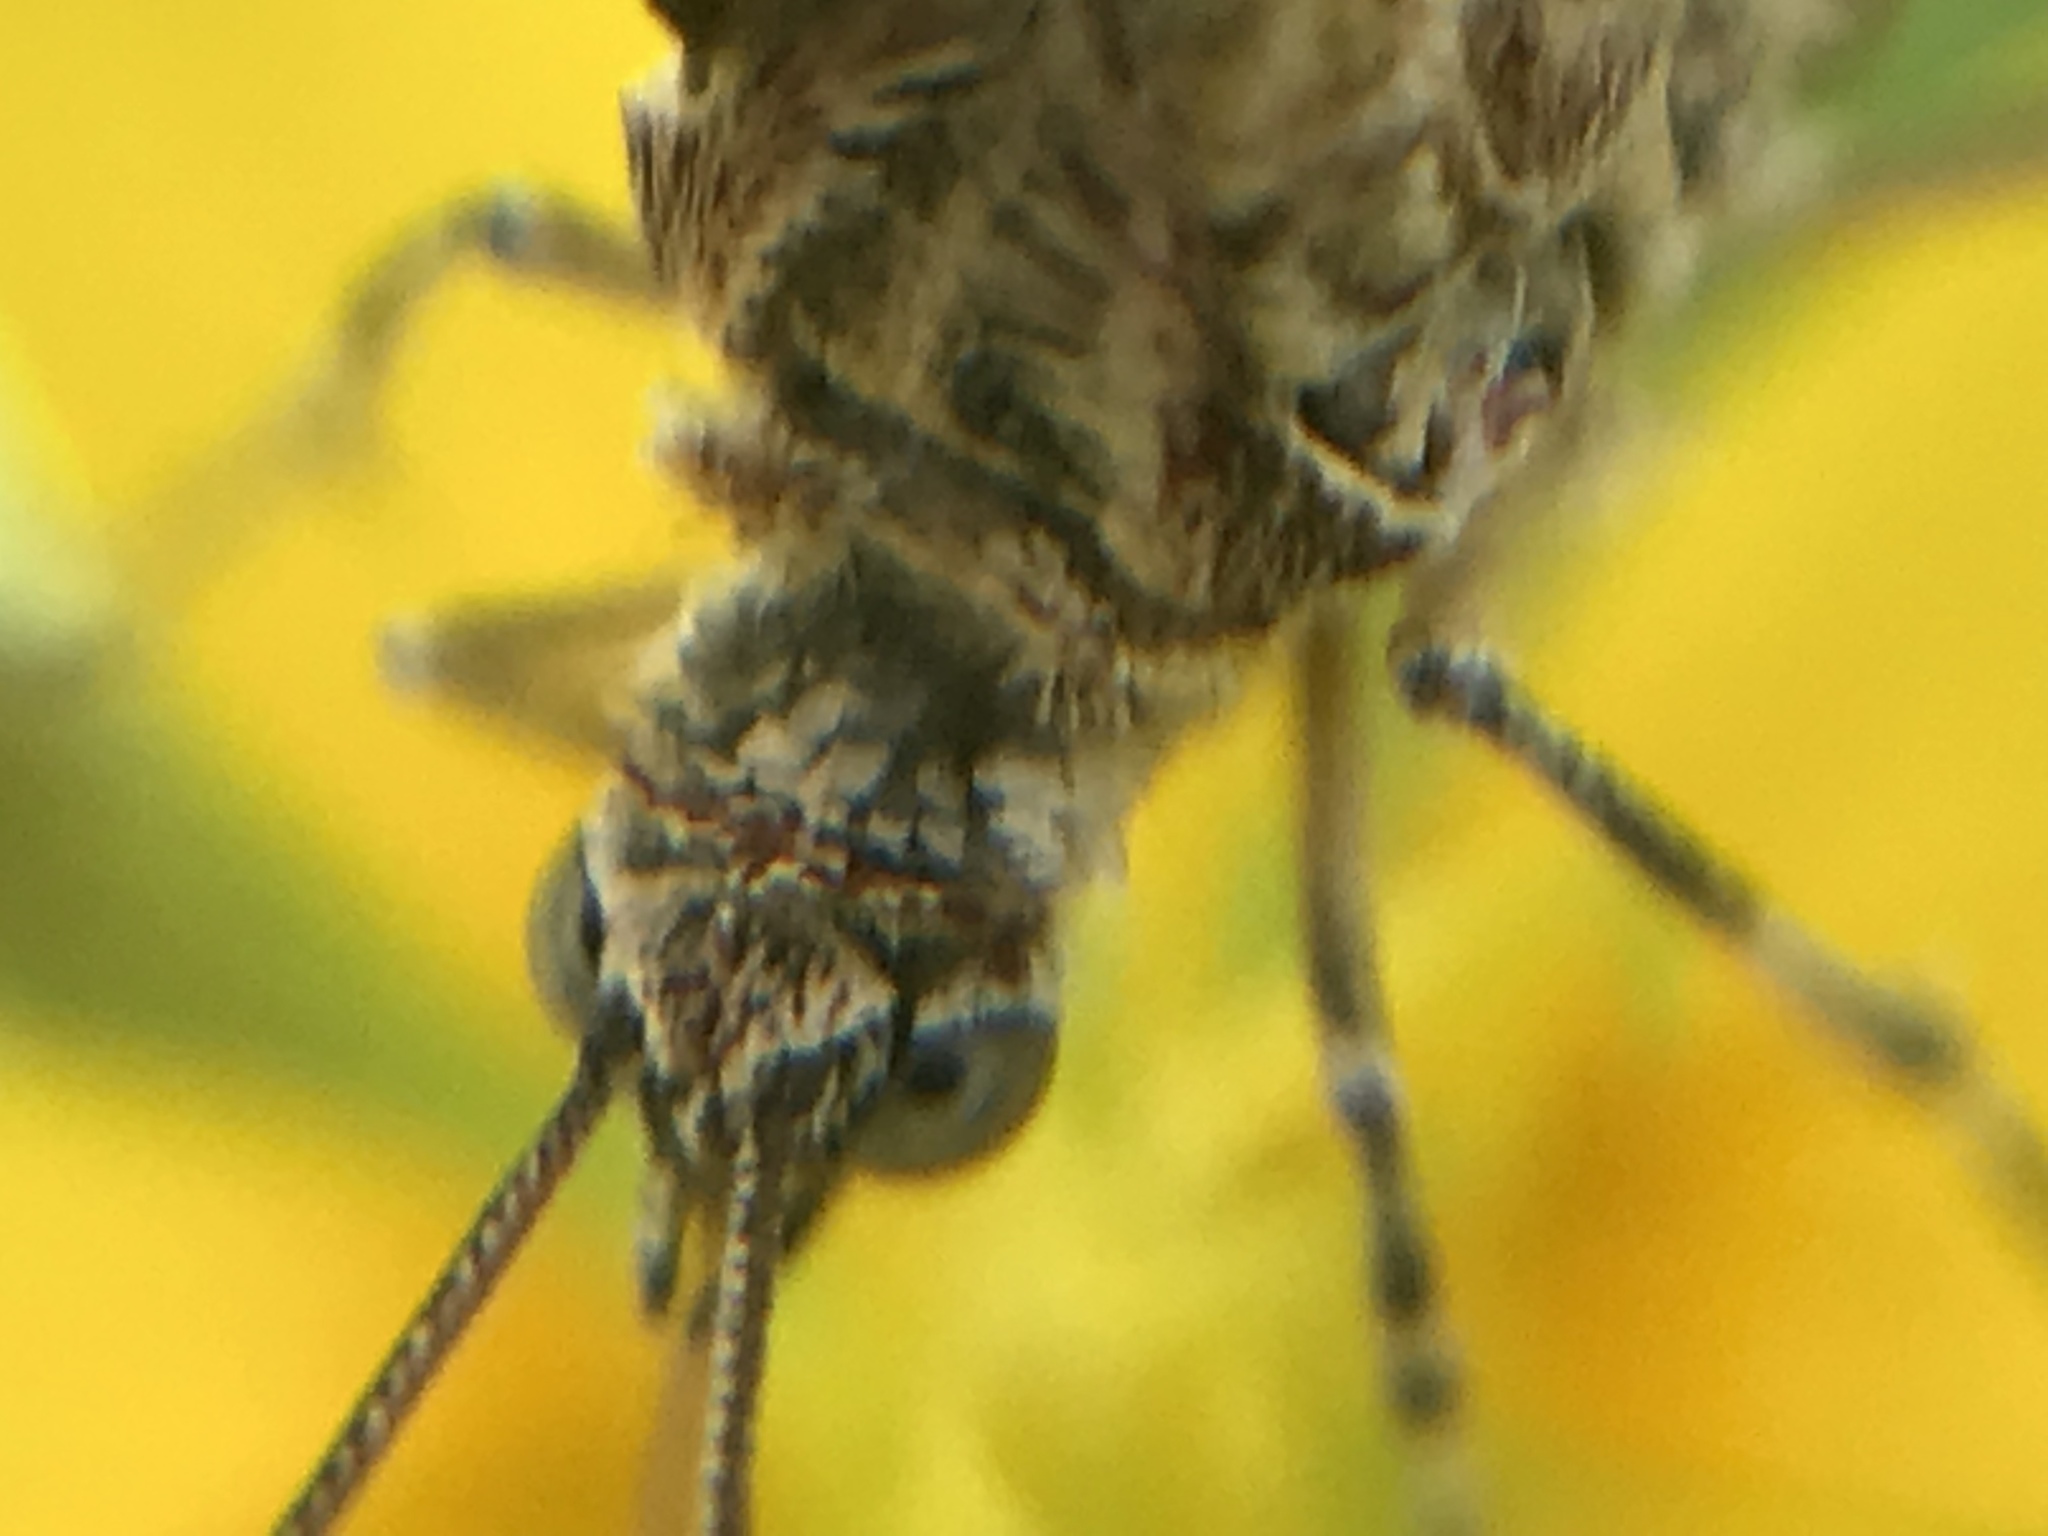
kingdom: Animalia
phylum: Arthropoda
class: Insecta
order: Lepidoptera
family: Geometridae
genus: Heterusia
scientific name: Heterusia atalantata
